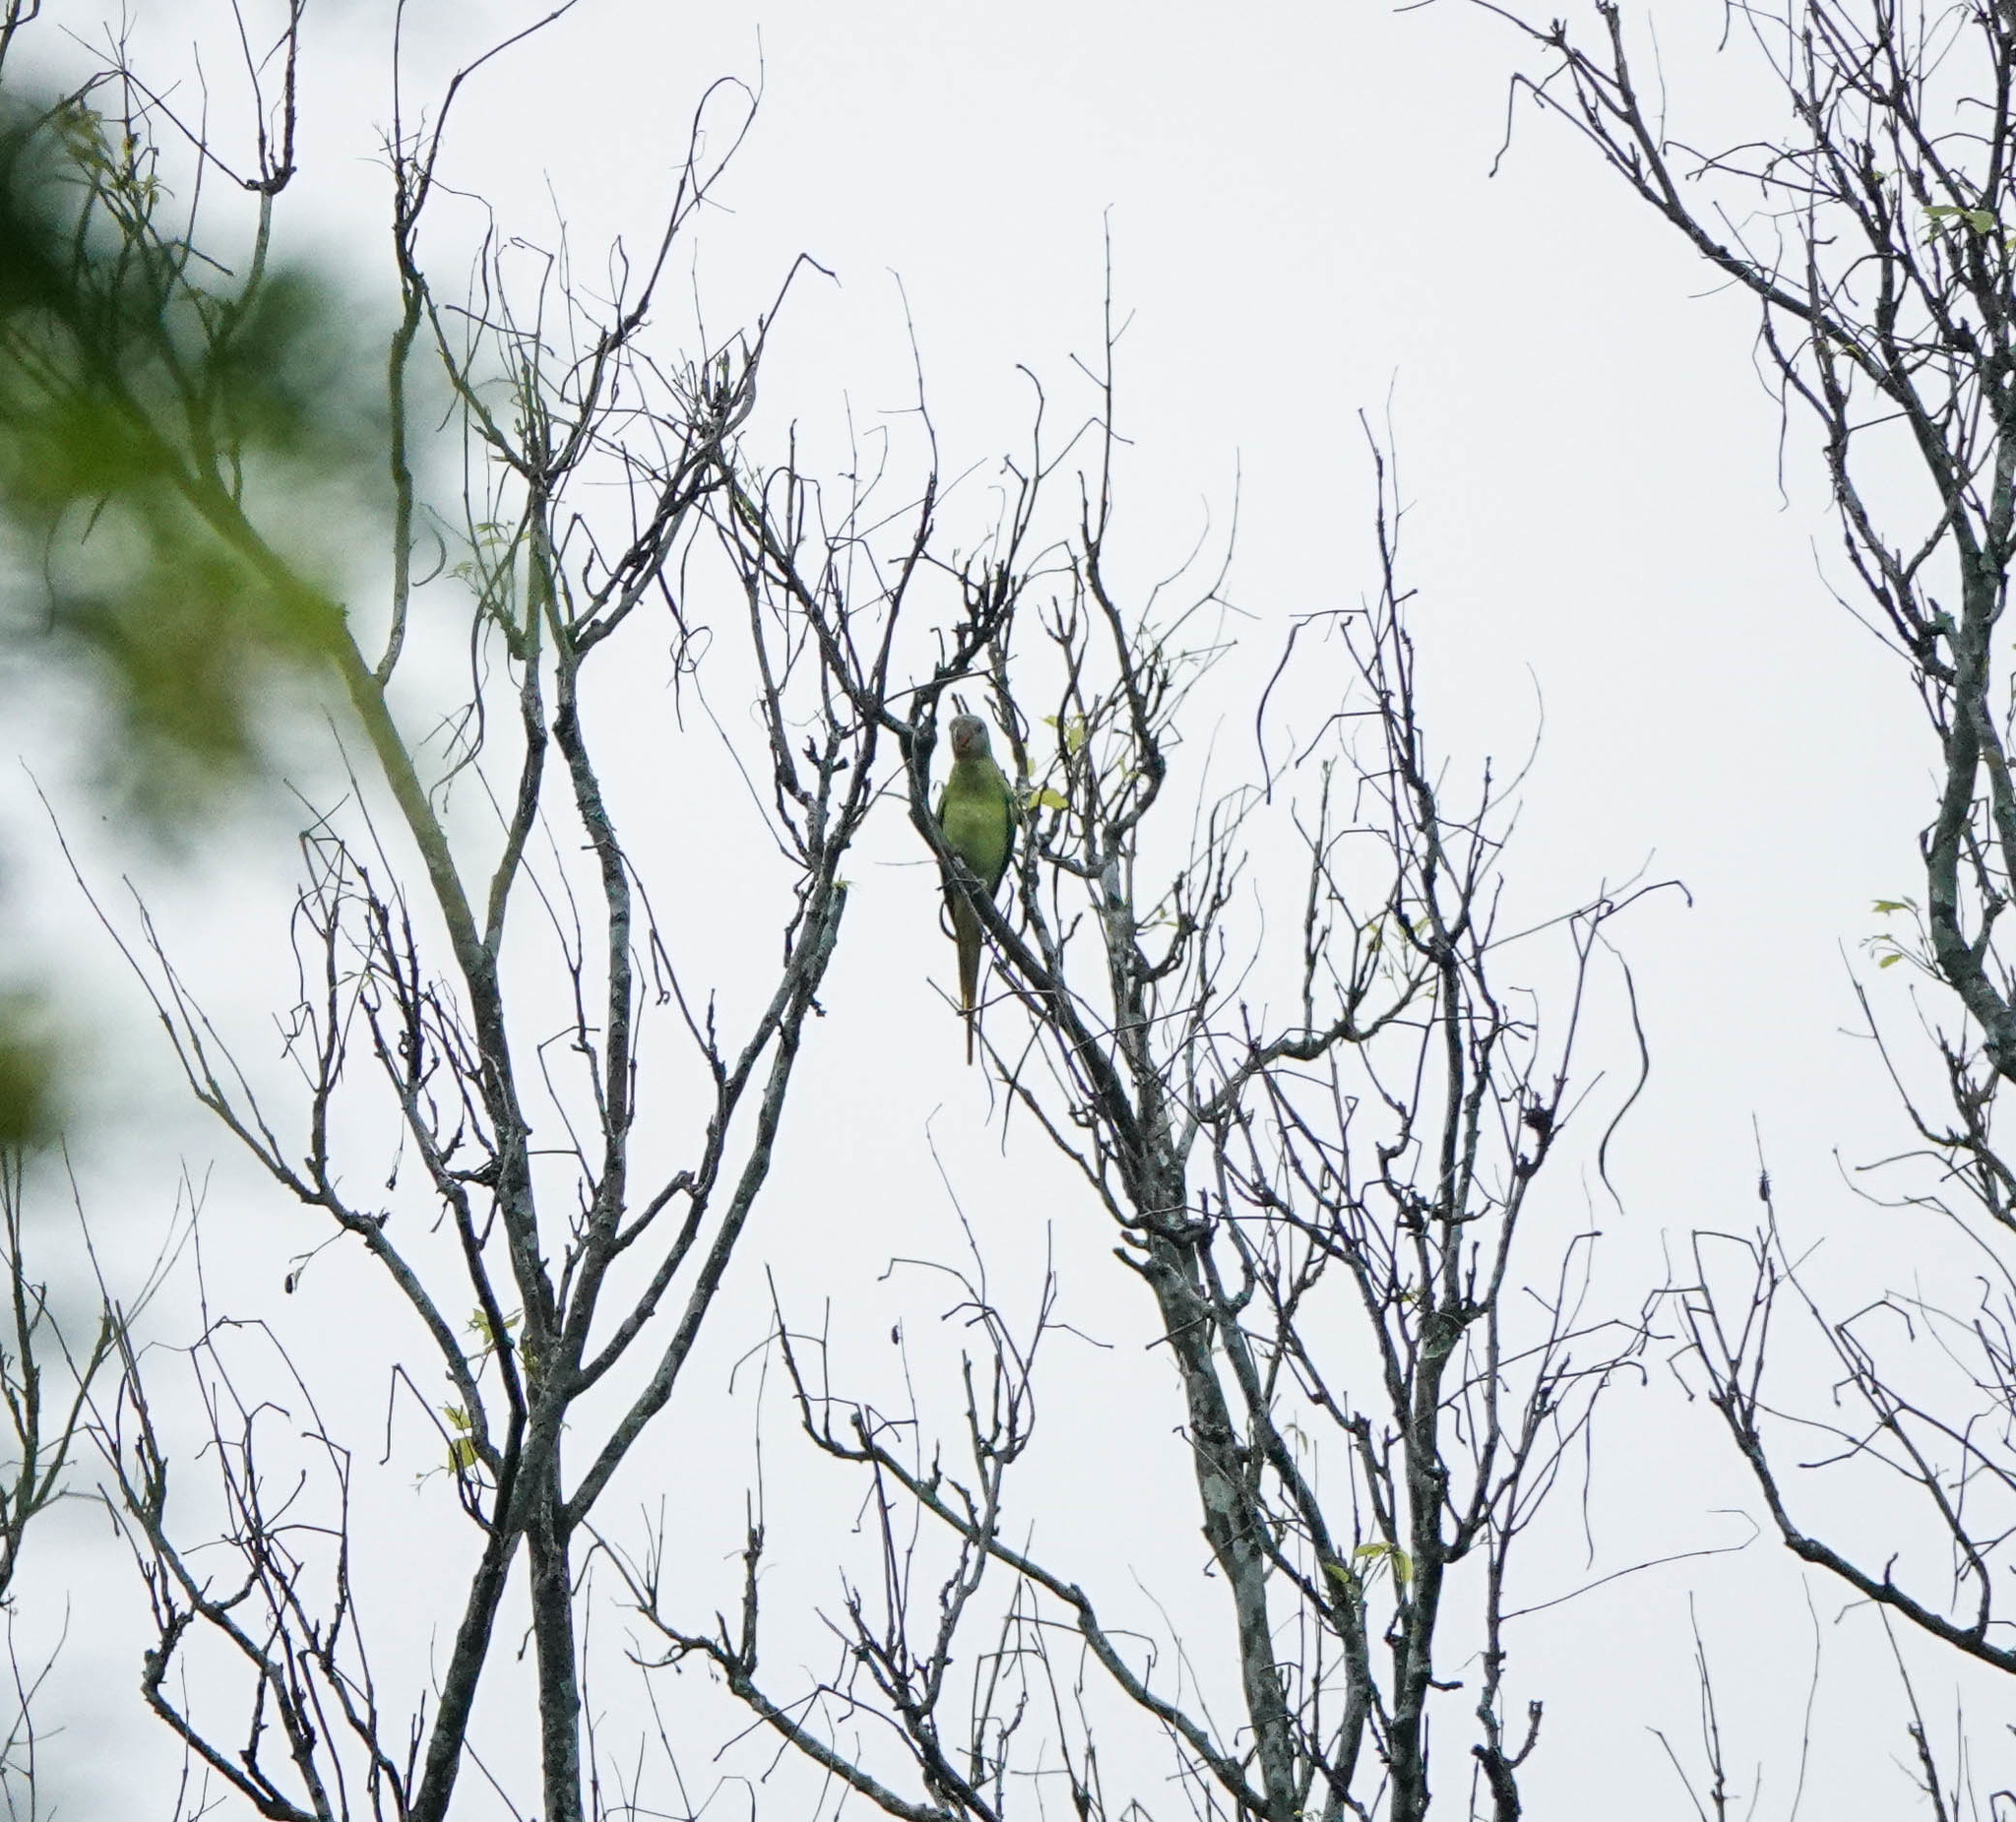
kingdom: Animalia
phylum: Chordata
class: Aves
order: Psittaciformes
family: Psittacidae
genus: Psittacula
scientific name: Psittacula finschii
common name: Grey-headed parakeet
